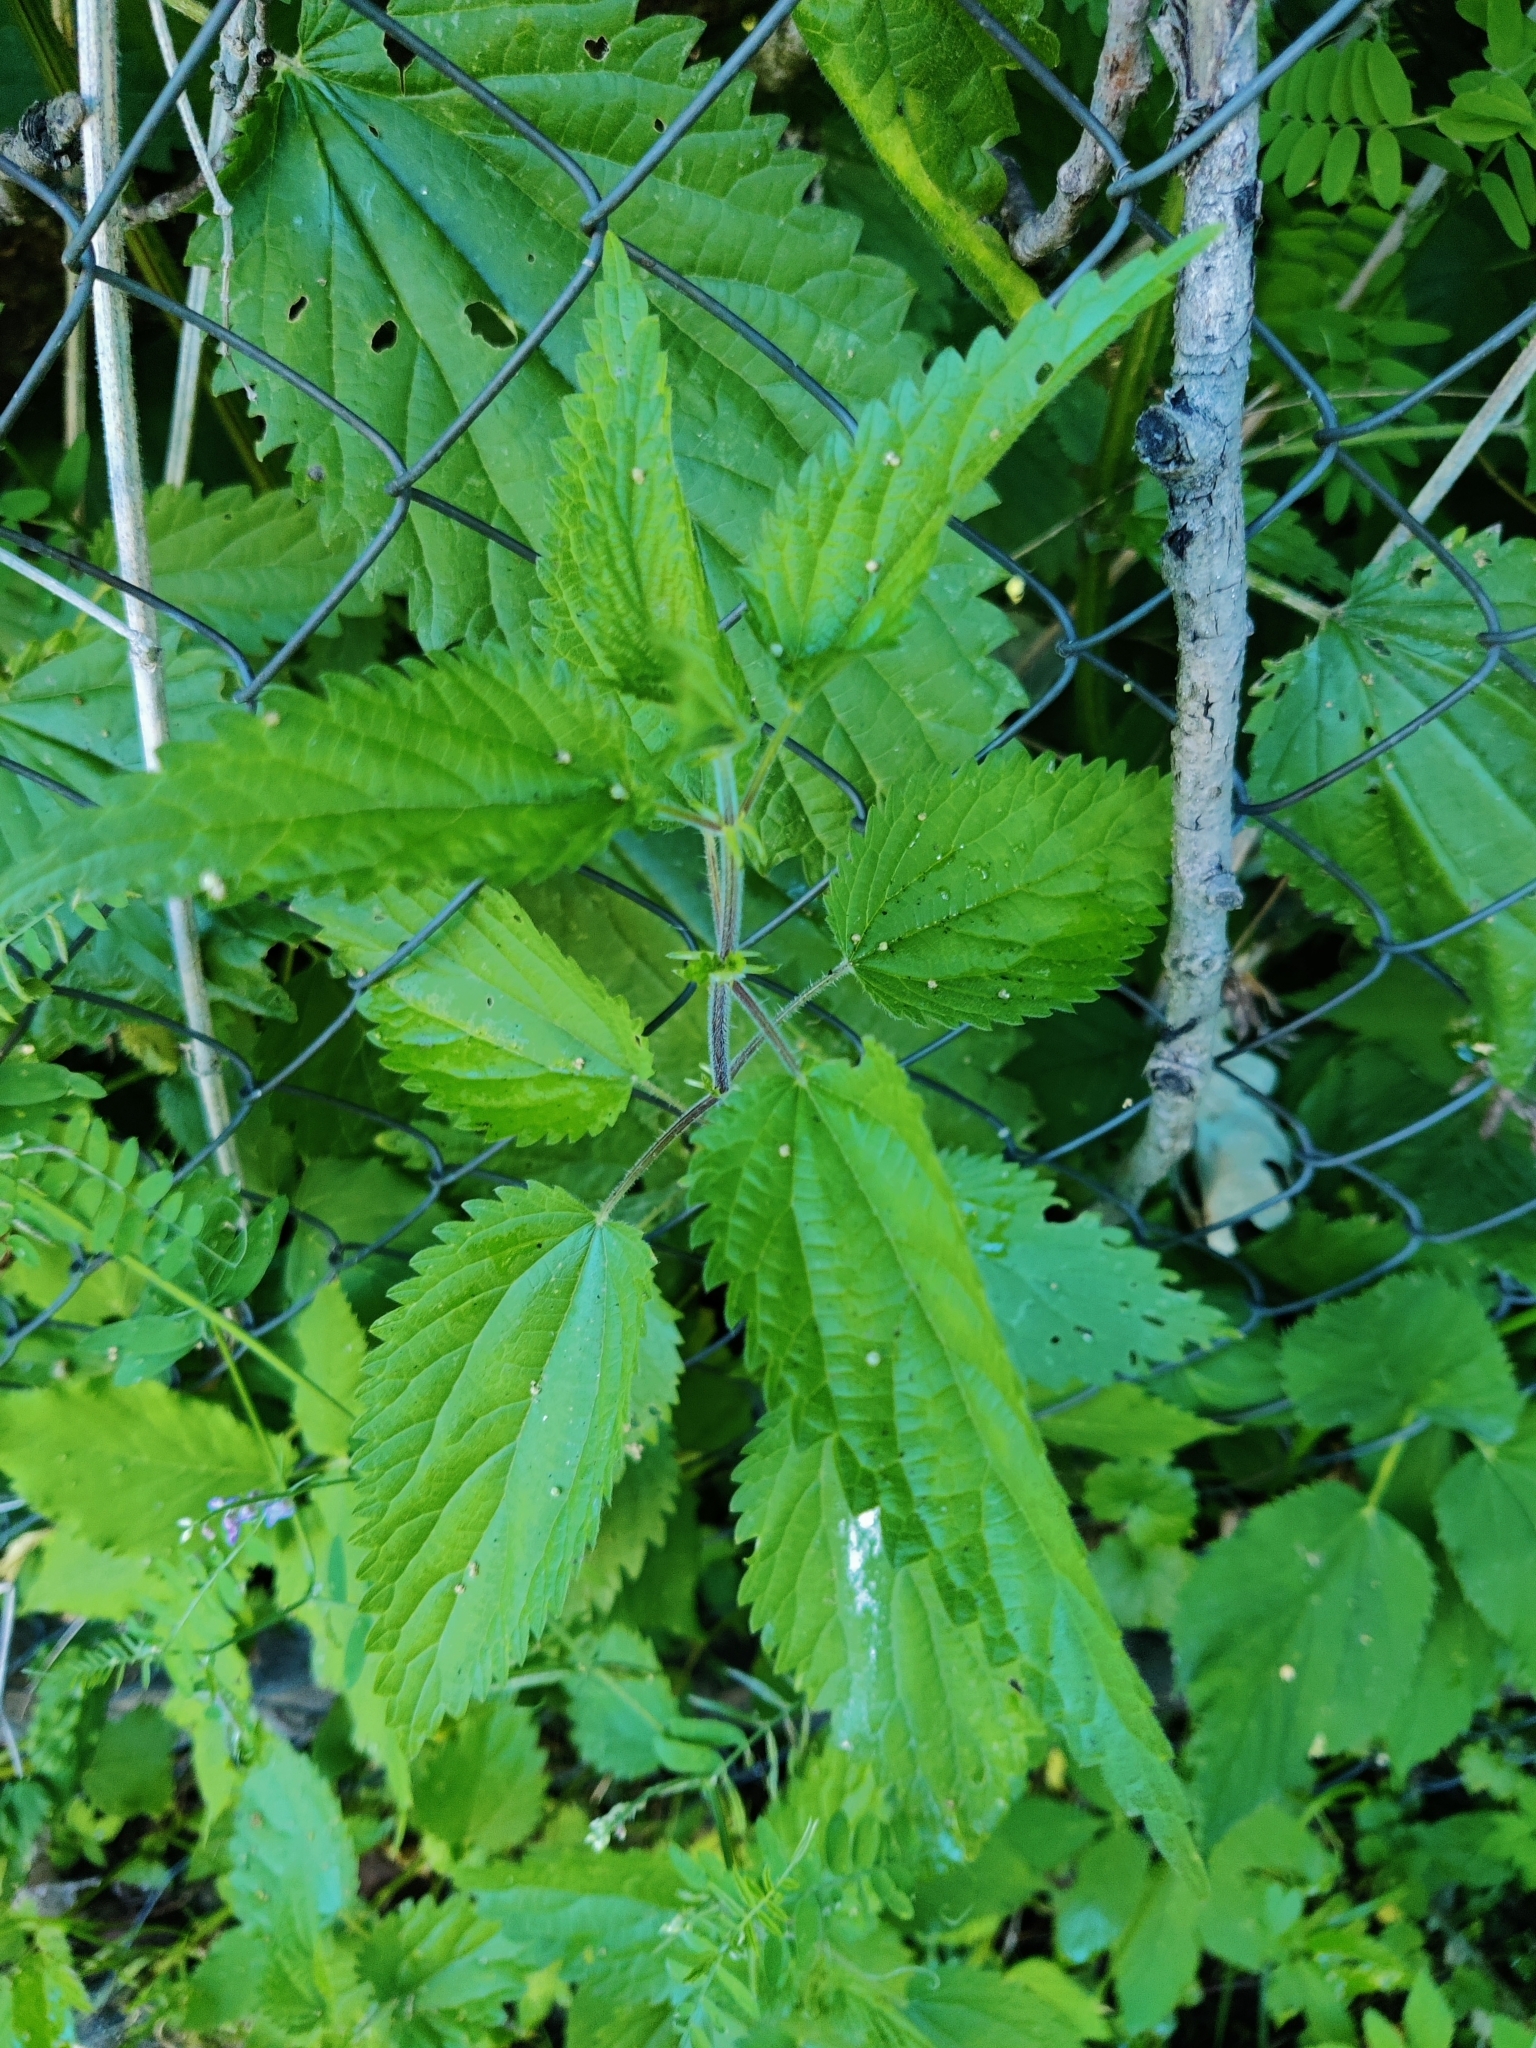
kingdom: Plantae
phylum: Tracheophyta
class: Magnoliopsida
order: Rosales
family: Urticaceae
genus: Urtica
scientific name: Urtica dioica
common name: Common nettle
